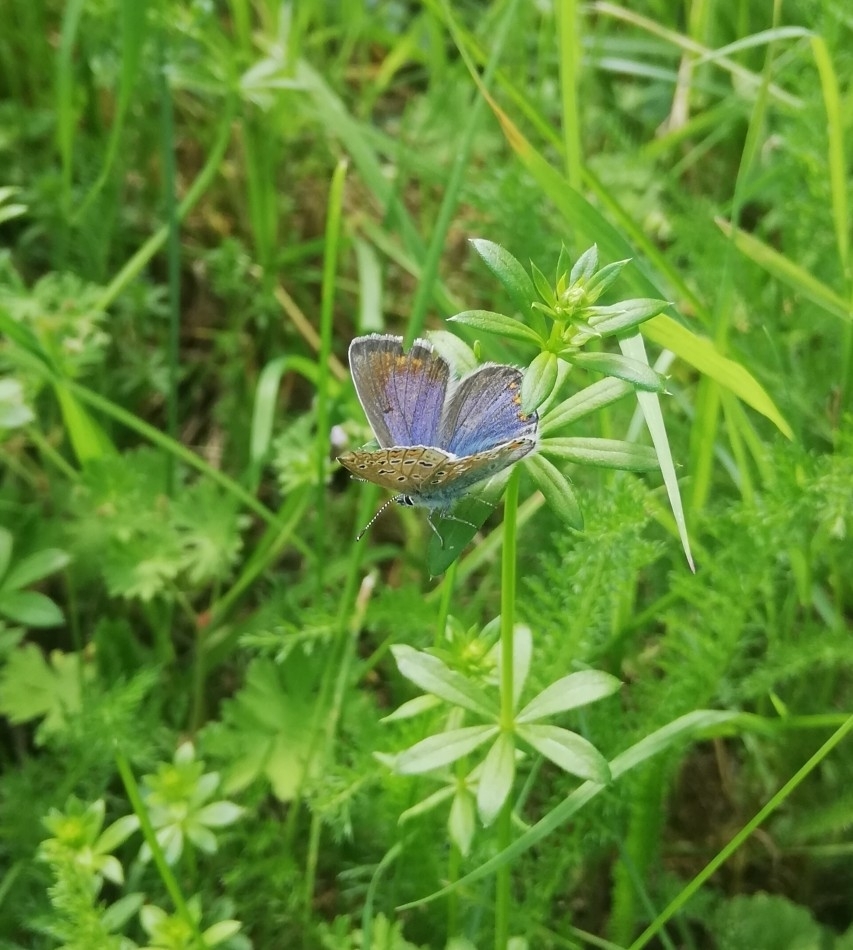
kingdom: Animalia
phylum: Arthropoda
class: Insecta
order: Lepidoptera
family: Lycaenidae
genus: Polyommatus
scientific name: Polyommatus icarus
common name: Common blue
